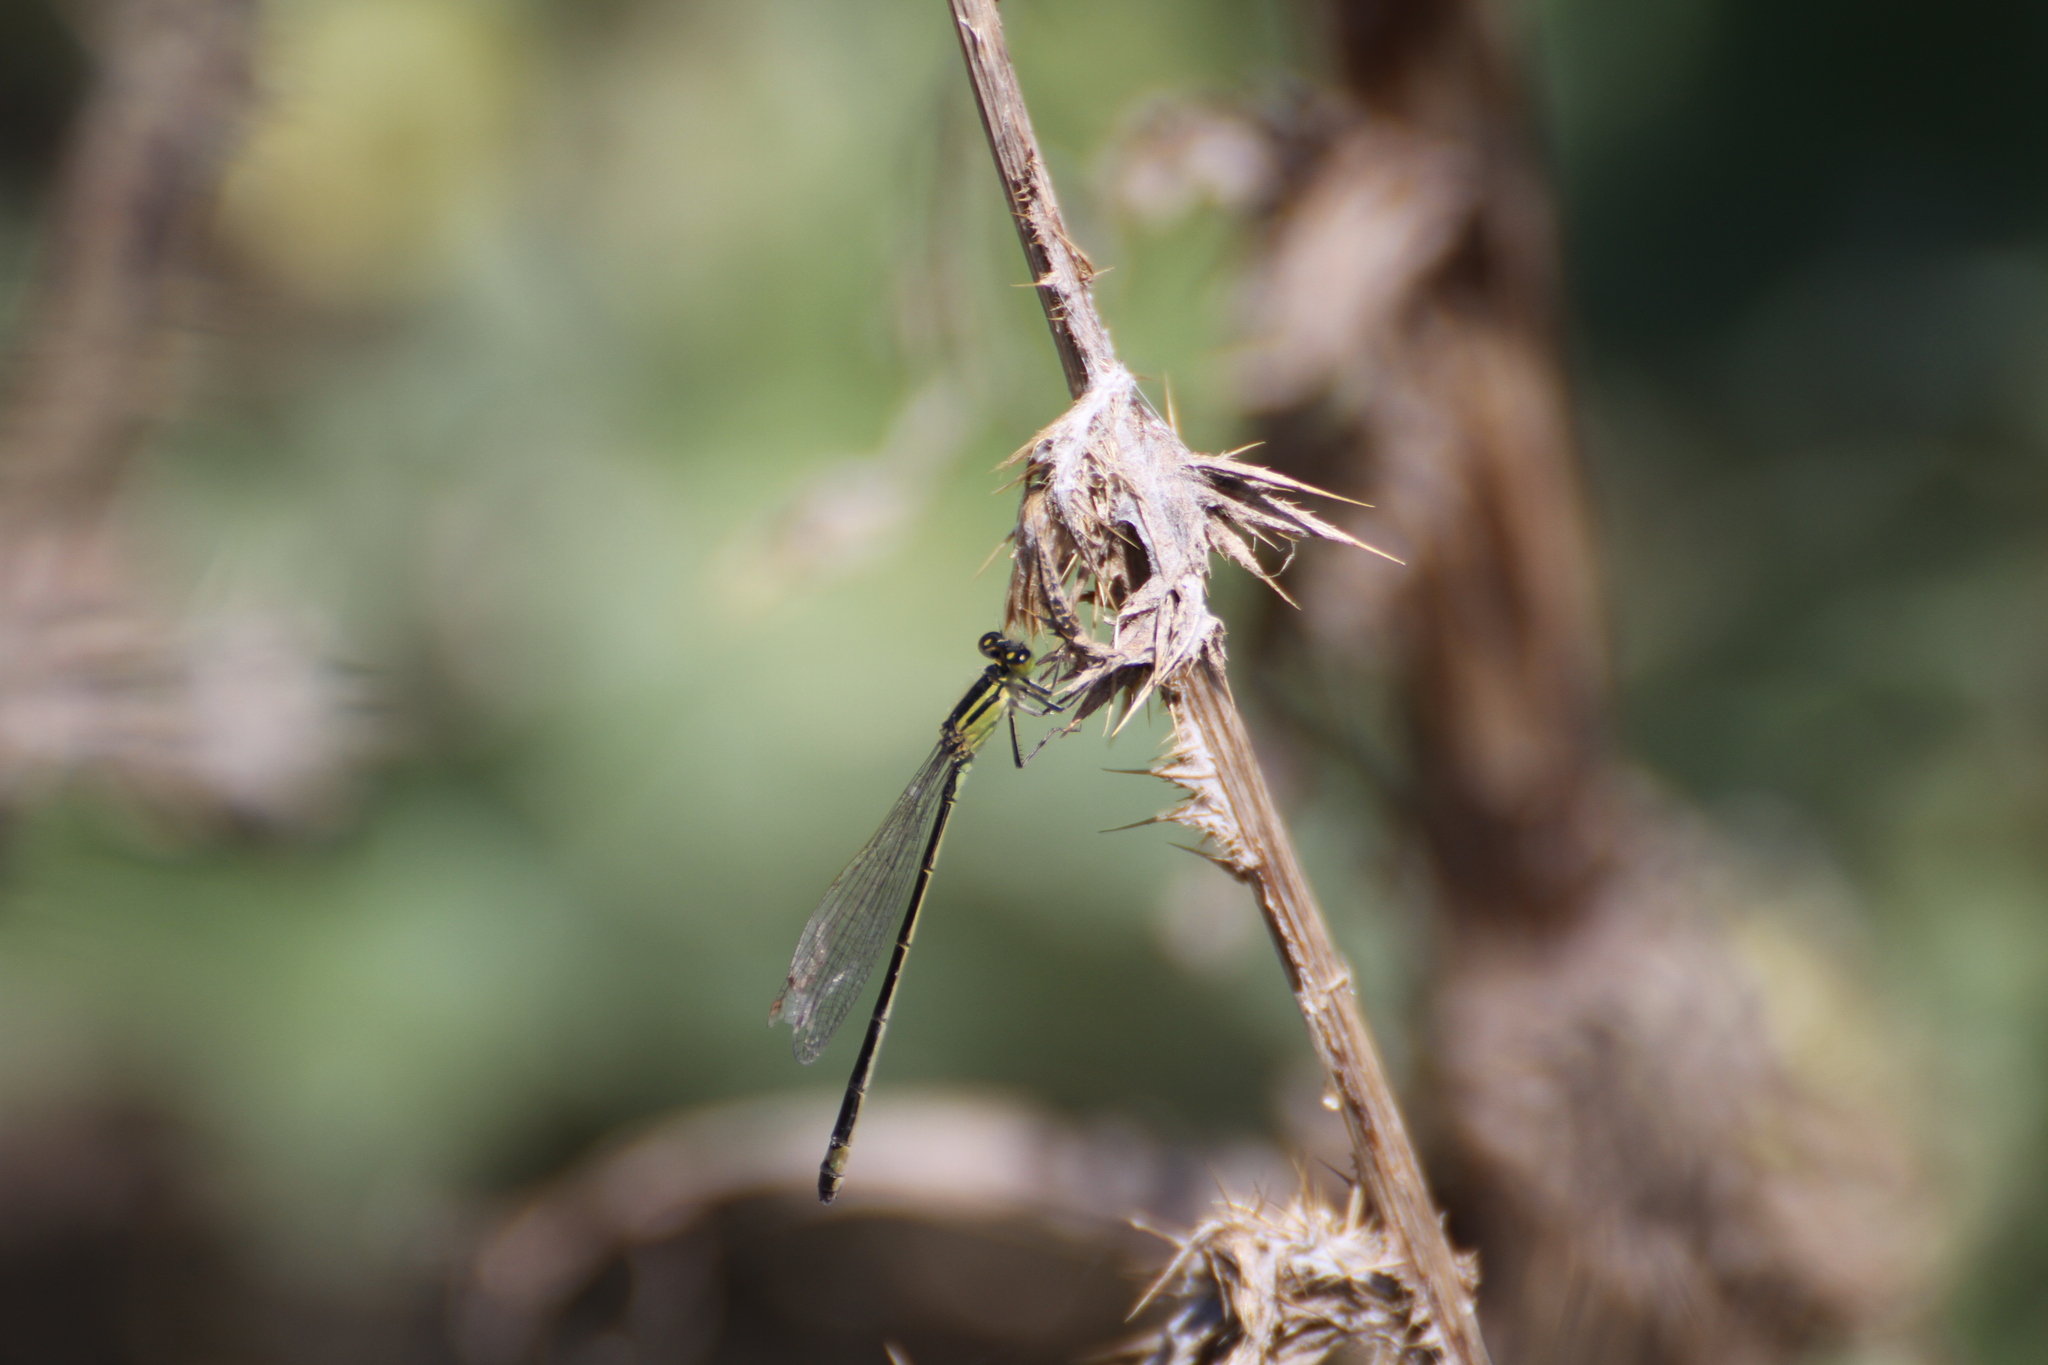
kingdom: Animalia
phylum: Arthropoda
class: Insecta
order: Odonata
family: Coenagrionidae
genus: Ischnura
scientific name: Ischnura elegans
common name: Blue-tailed damselfly
